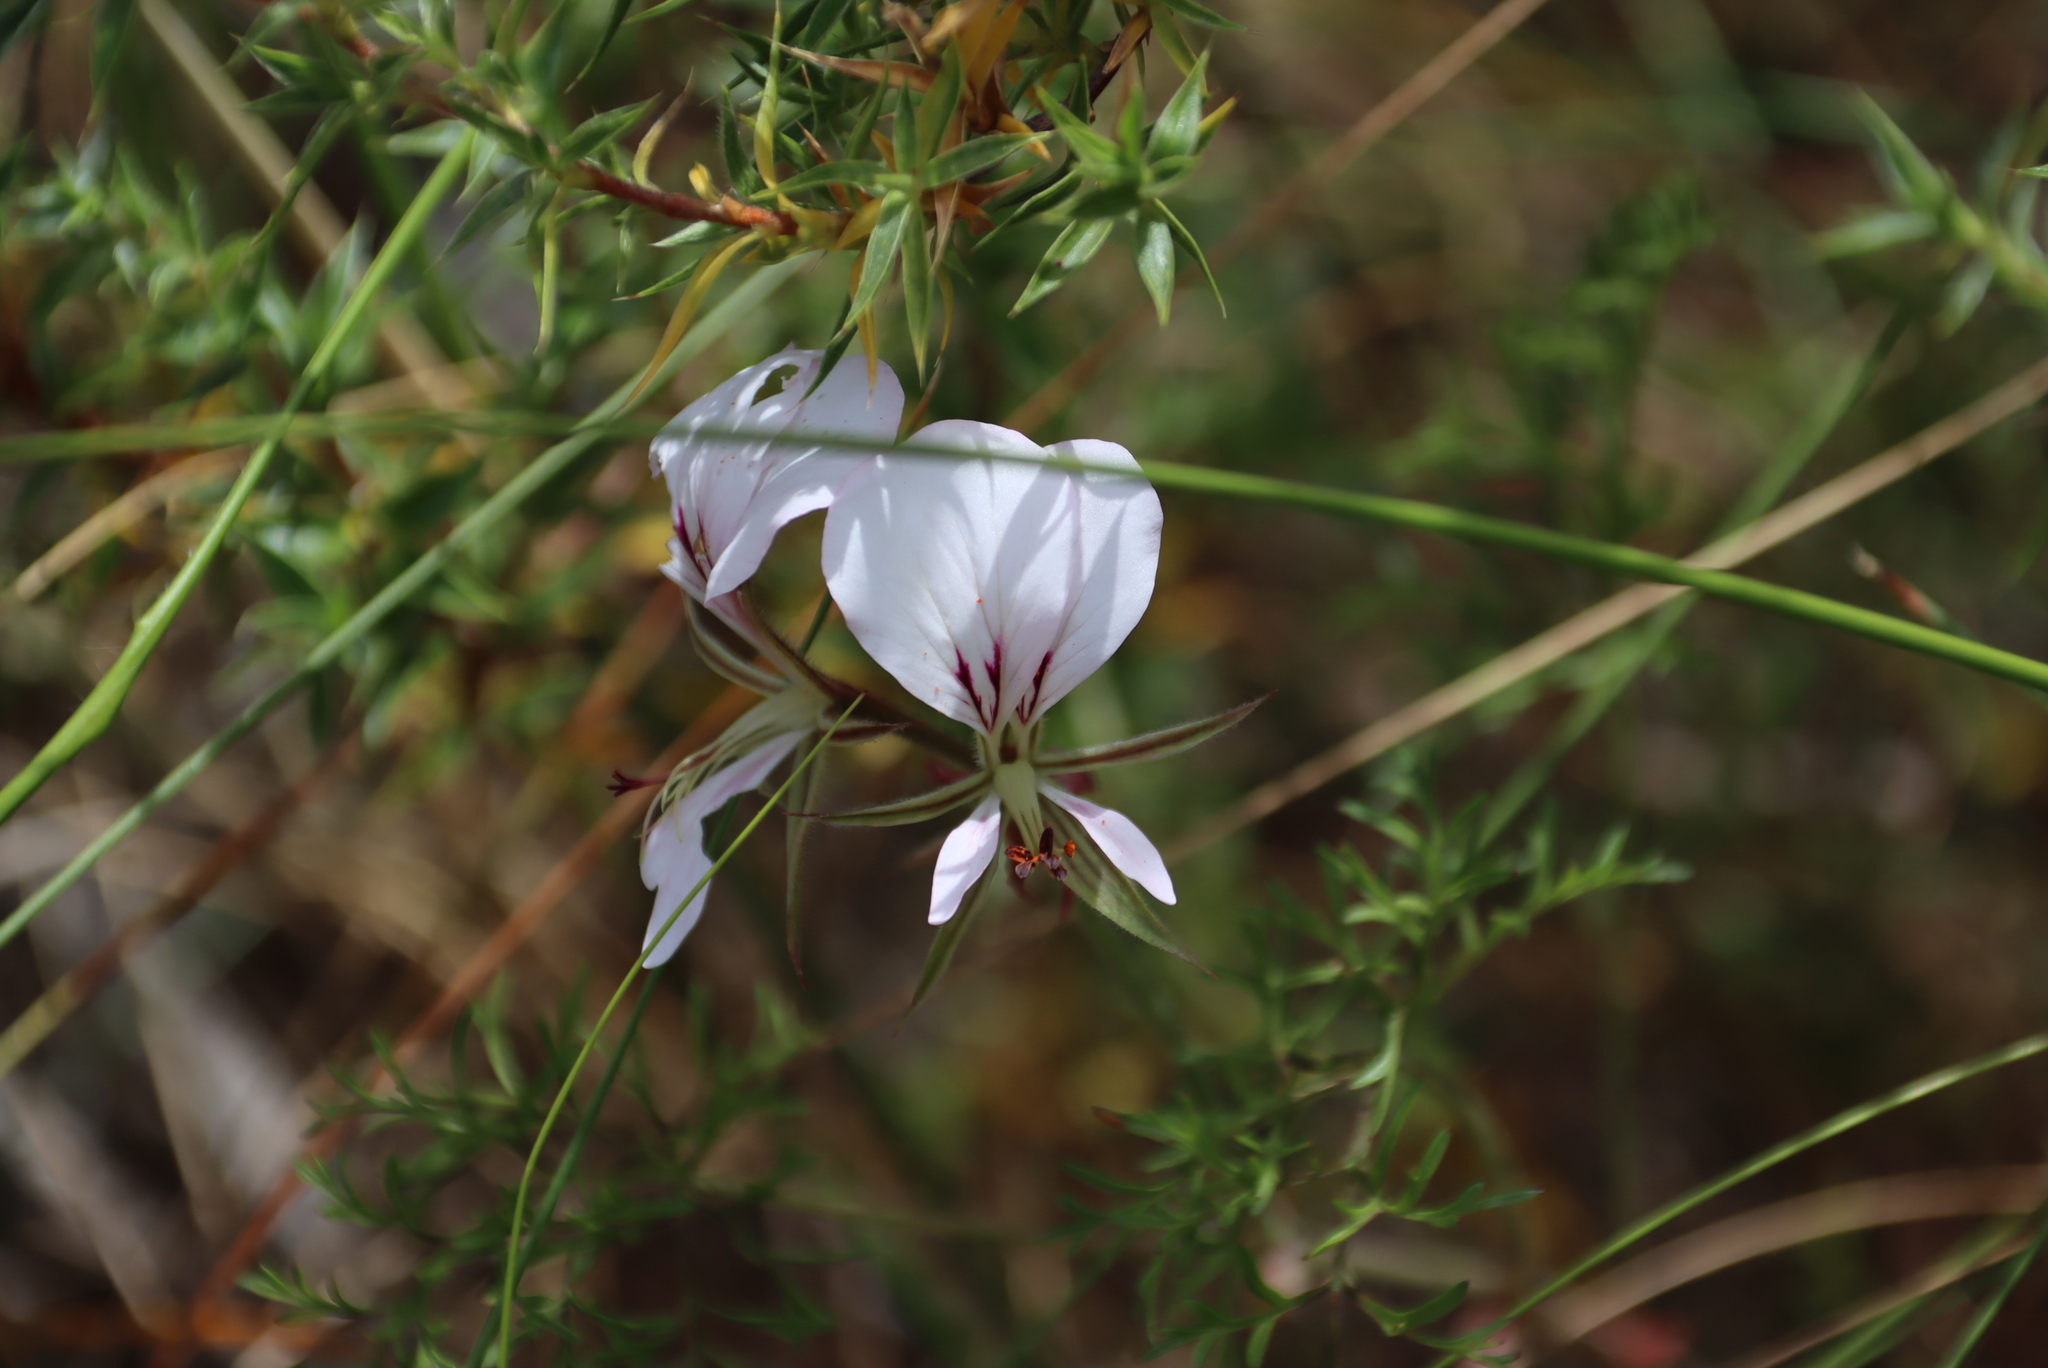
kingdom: Plantae
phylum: Tracheophyta
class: Magnoliopsida
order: Geraniales
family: Geraniaceae
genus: Pelargonium
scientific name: Pelargonium myrrhifolium
